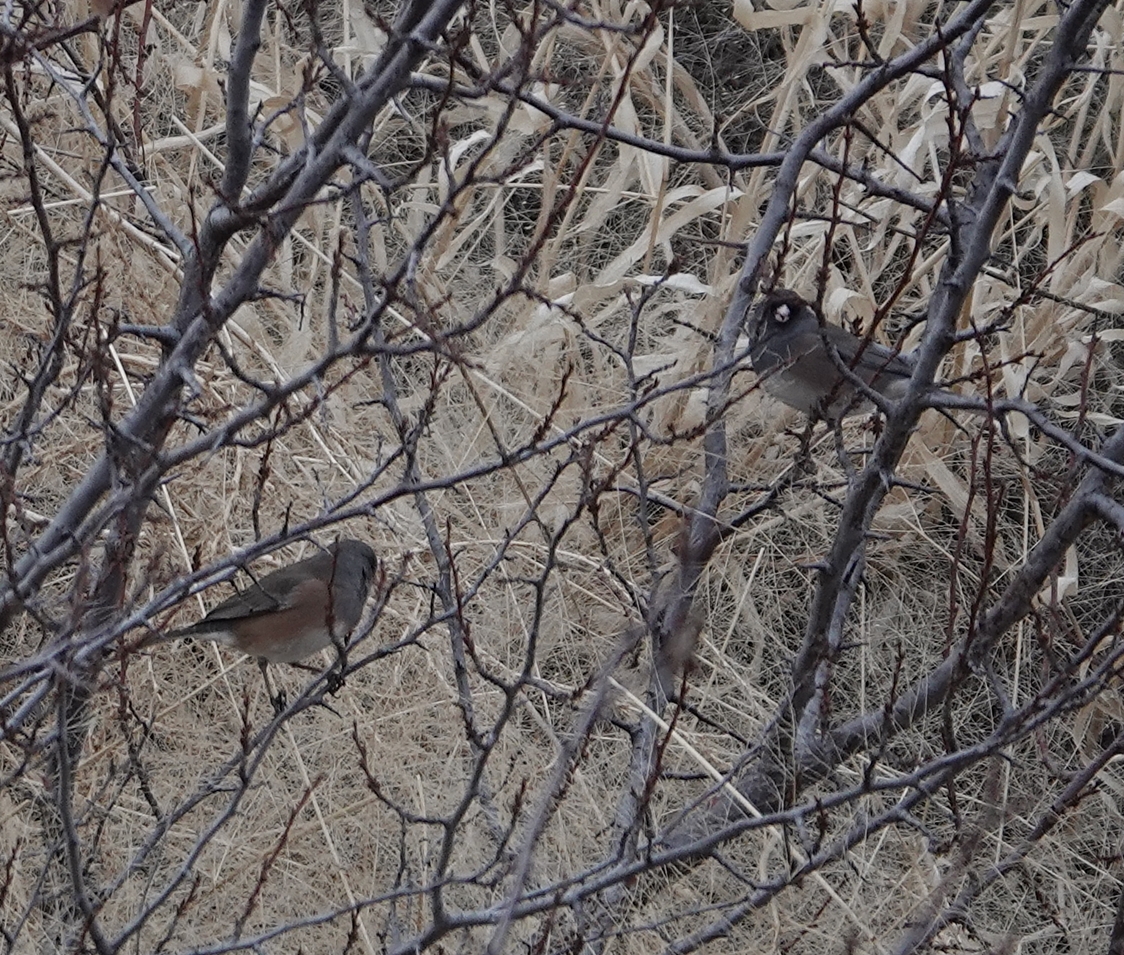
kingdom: Animalia
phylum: Chordata
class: Aves
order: Passeriformes
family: Passerellidae
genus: Junco
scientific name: Junco hyemalis
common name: Dark-eyed junco
